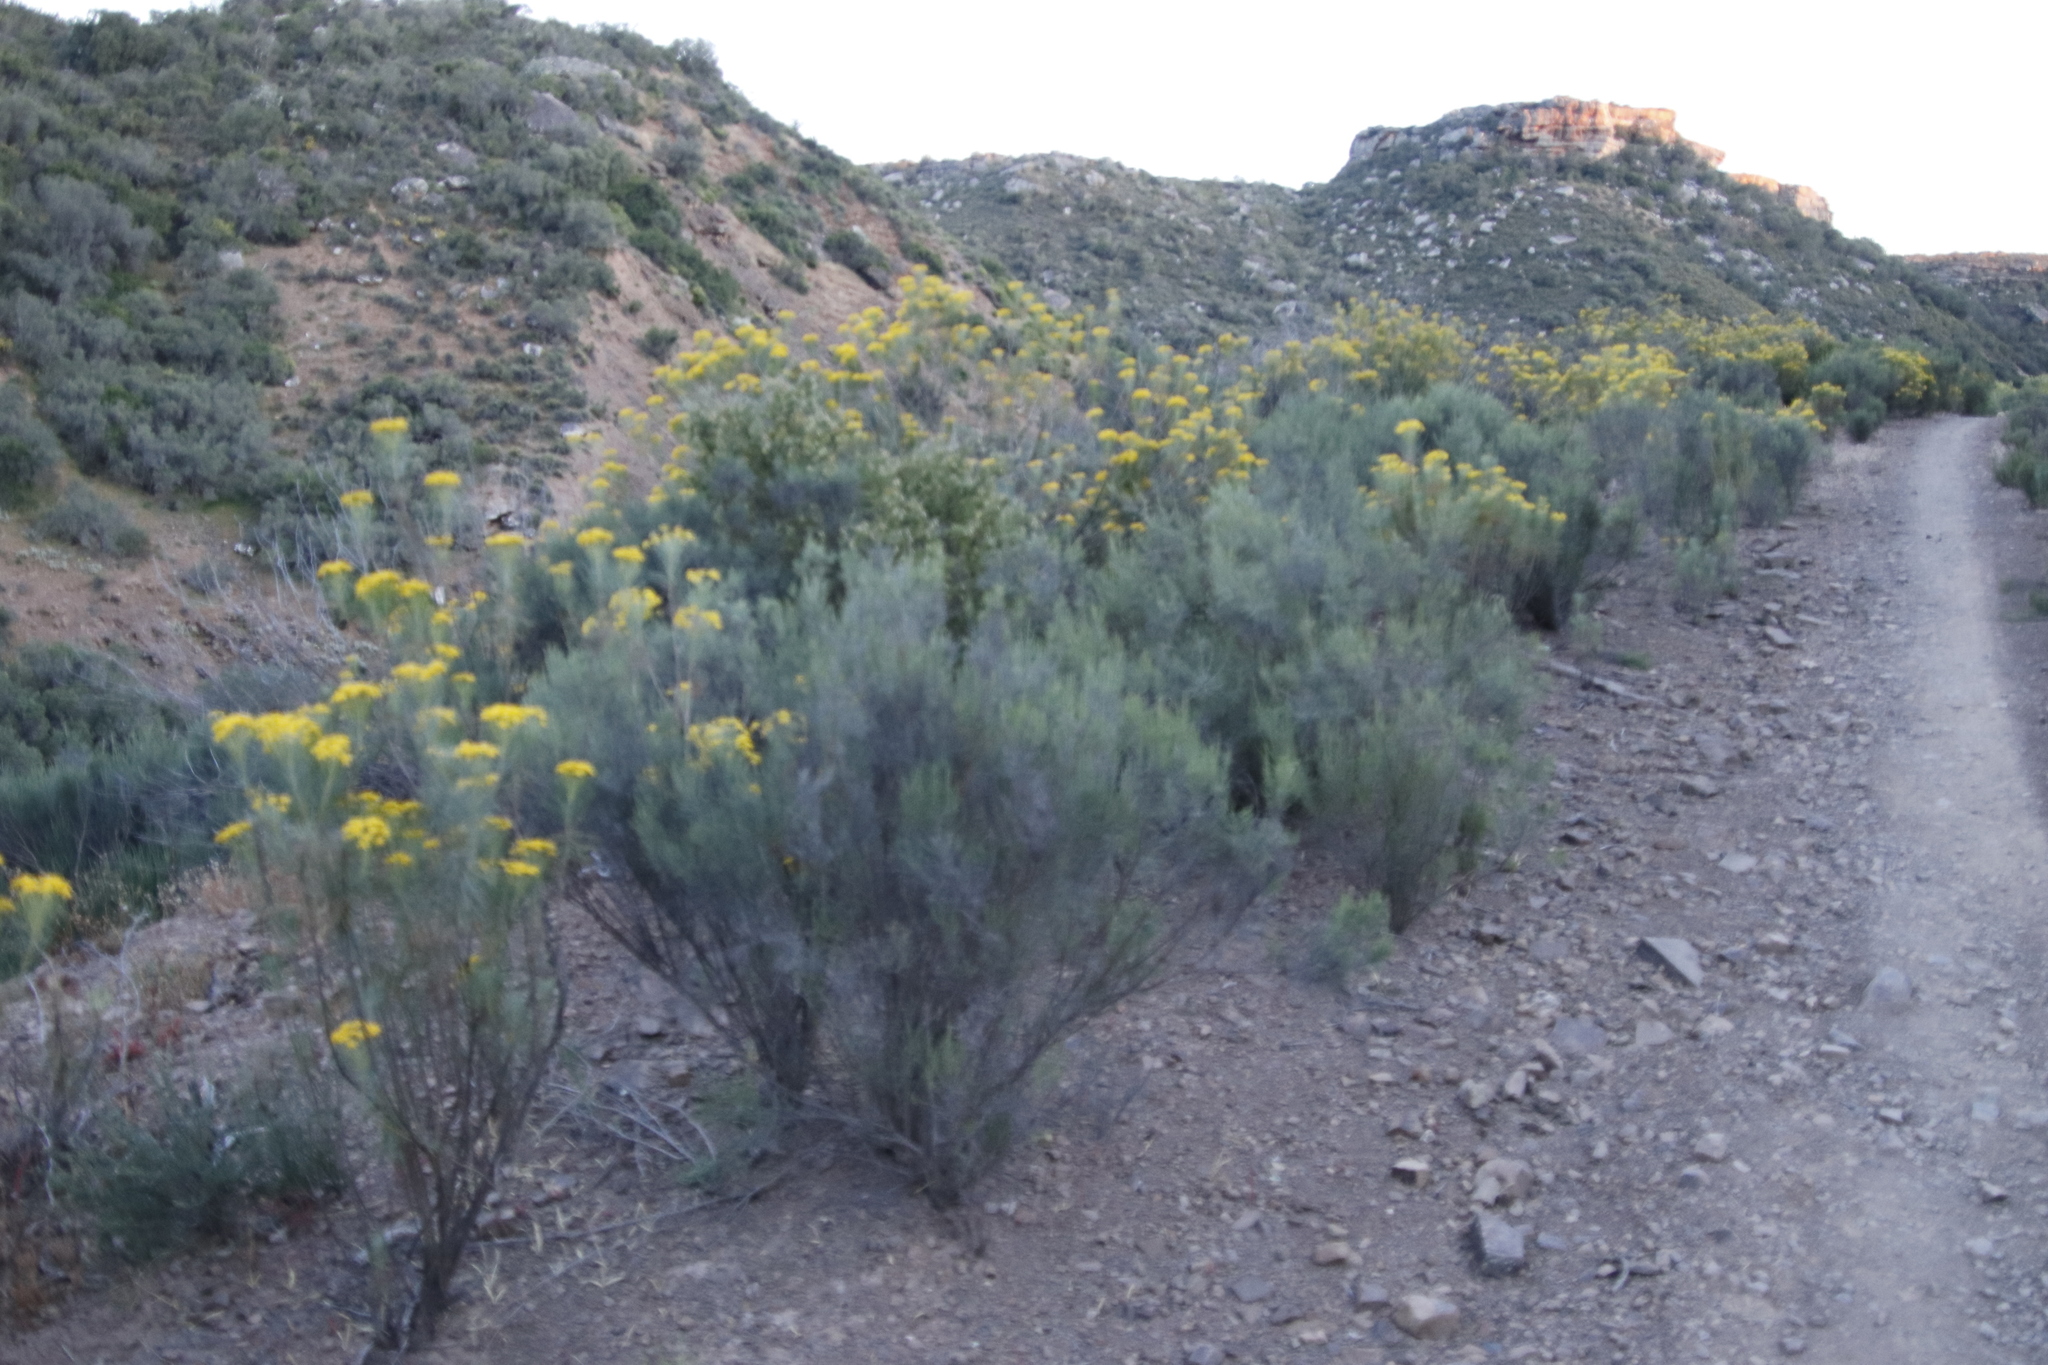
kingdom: Plantae
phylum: Tracheophyta
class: Magnoliopsida
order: Asterales
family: Asteraceae
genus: Dicerothamnus
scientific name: Dicerothamnus rhinocerotis
